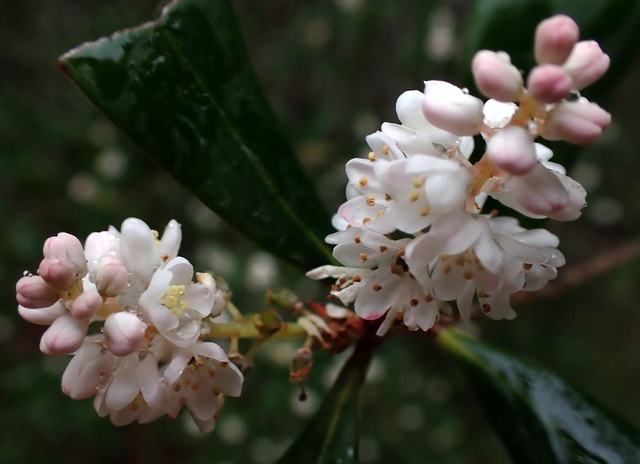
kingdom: Plantae
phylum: Tracheophyta
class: Magnoliopsida
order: Ericales
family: Cyrillaceae
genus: Cliftonia
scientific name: Cliftonia monophylla
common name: Titi
